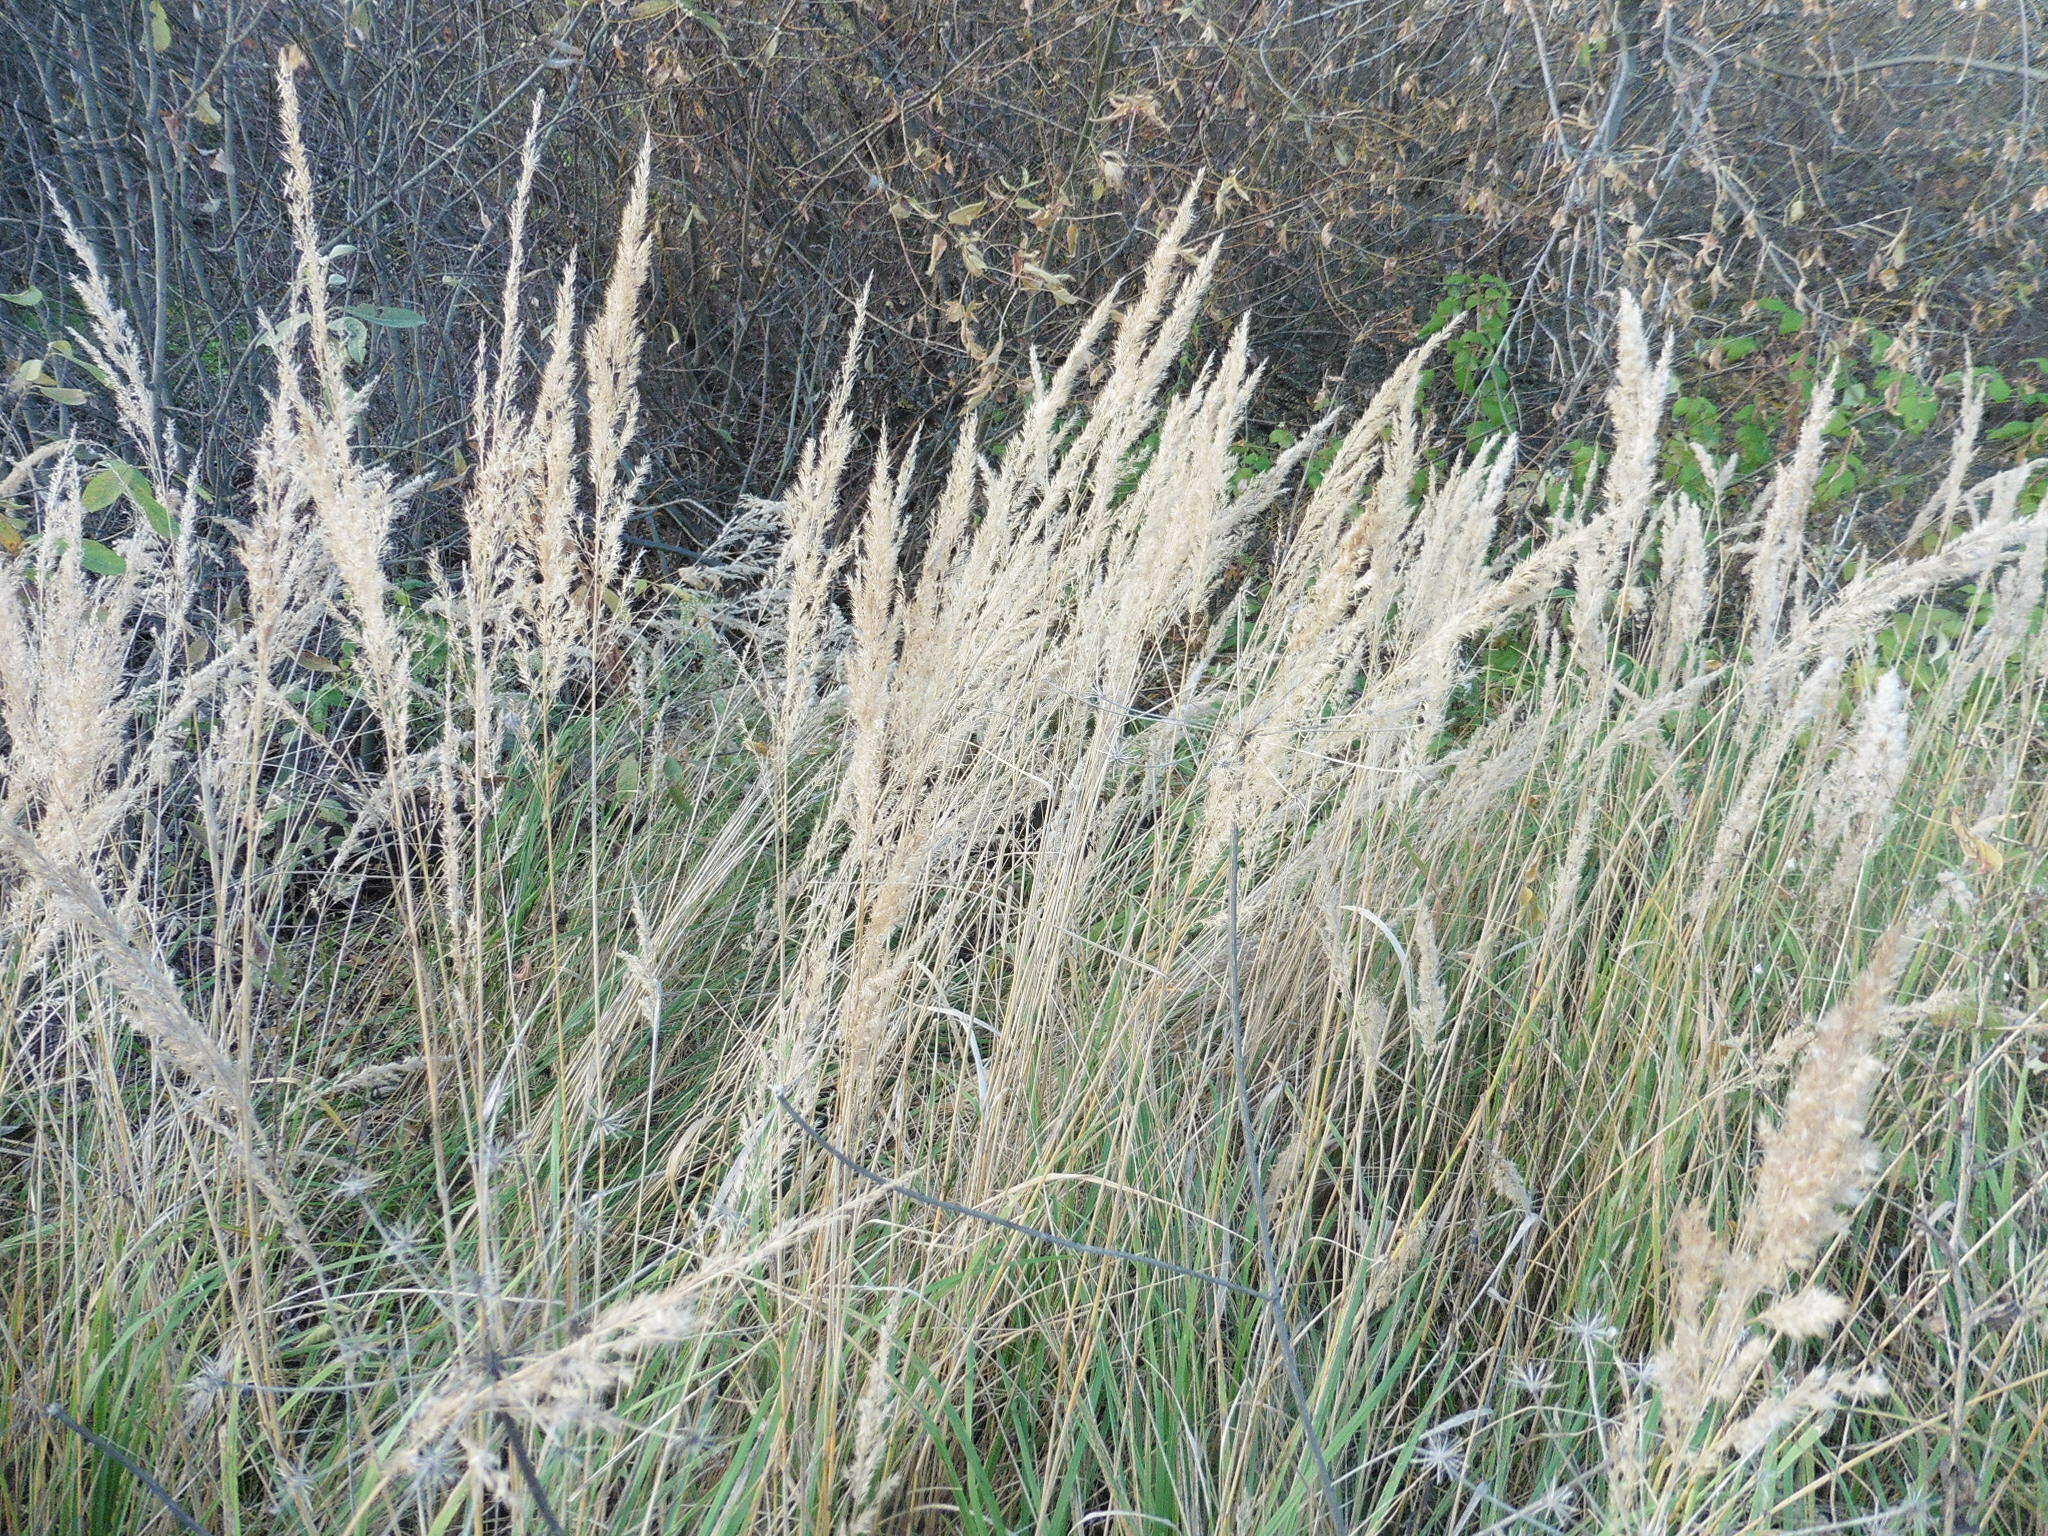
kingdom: Plantae
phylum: Tracheophyta
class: Liliopsida
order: Poales
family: Poaceae
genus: Calamagrostis
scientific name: Calamagrostis epigejos
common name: Wood small-reed
